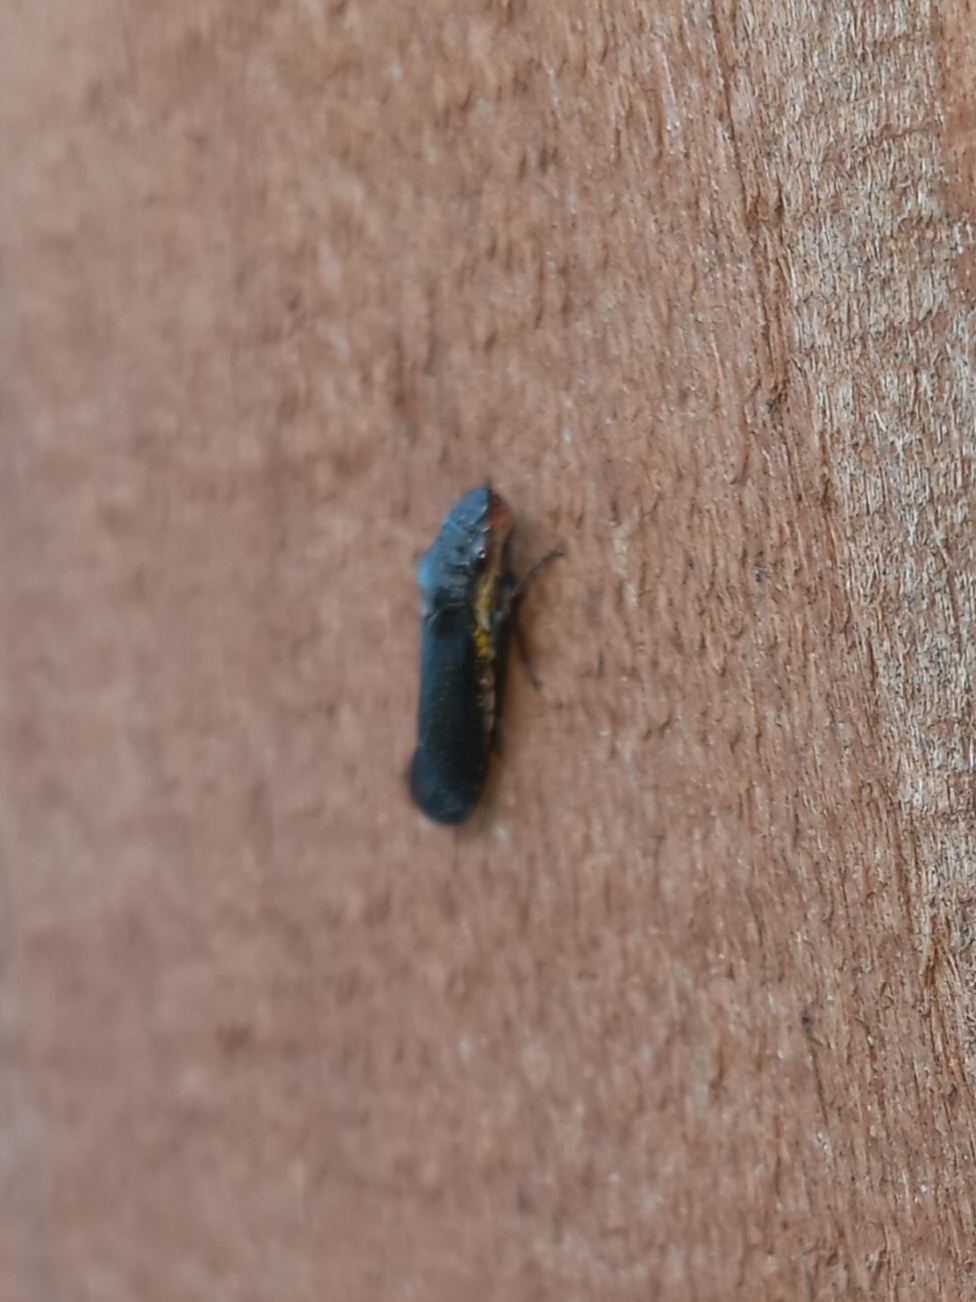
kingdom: Animalia
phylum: Arthropoda
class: Insecta
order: Hemiptera
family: Cicadellidae
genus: Paraulacizes
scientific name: Paraulacizes irrorata
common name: Speckled sharpshooter
